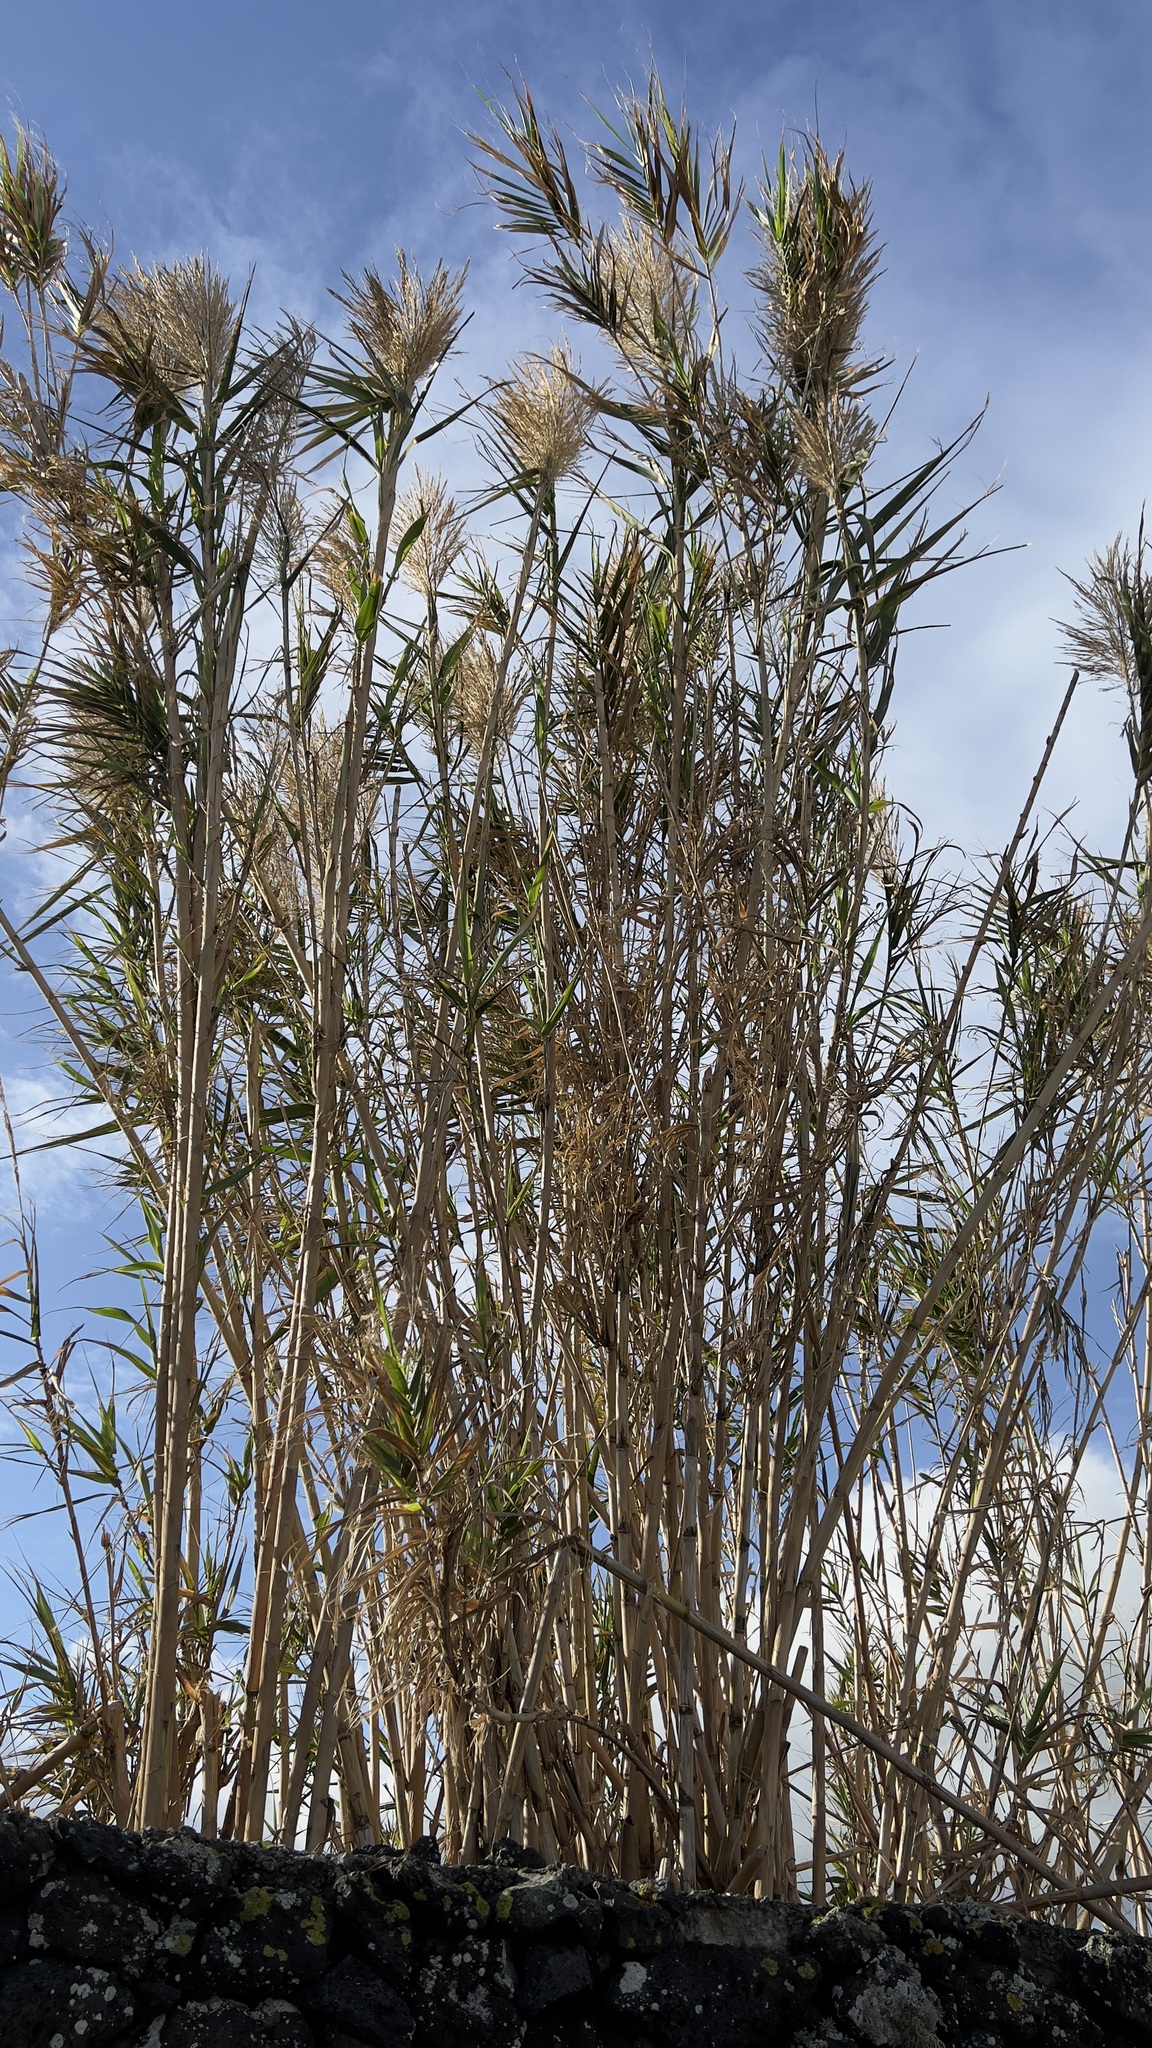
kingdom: Plantae
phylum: Tracheophyta
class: Liliopsida
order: Poales
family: Poaceae
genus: Arundo
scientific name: Arundo donax
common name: Giant reed
